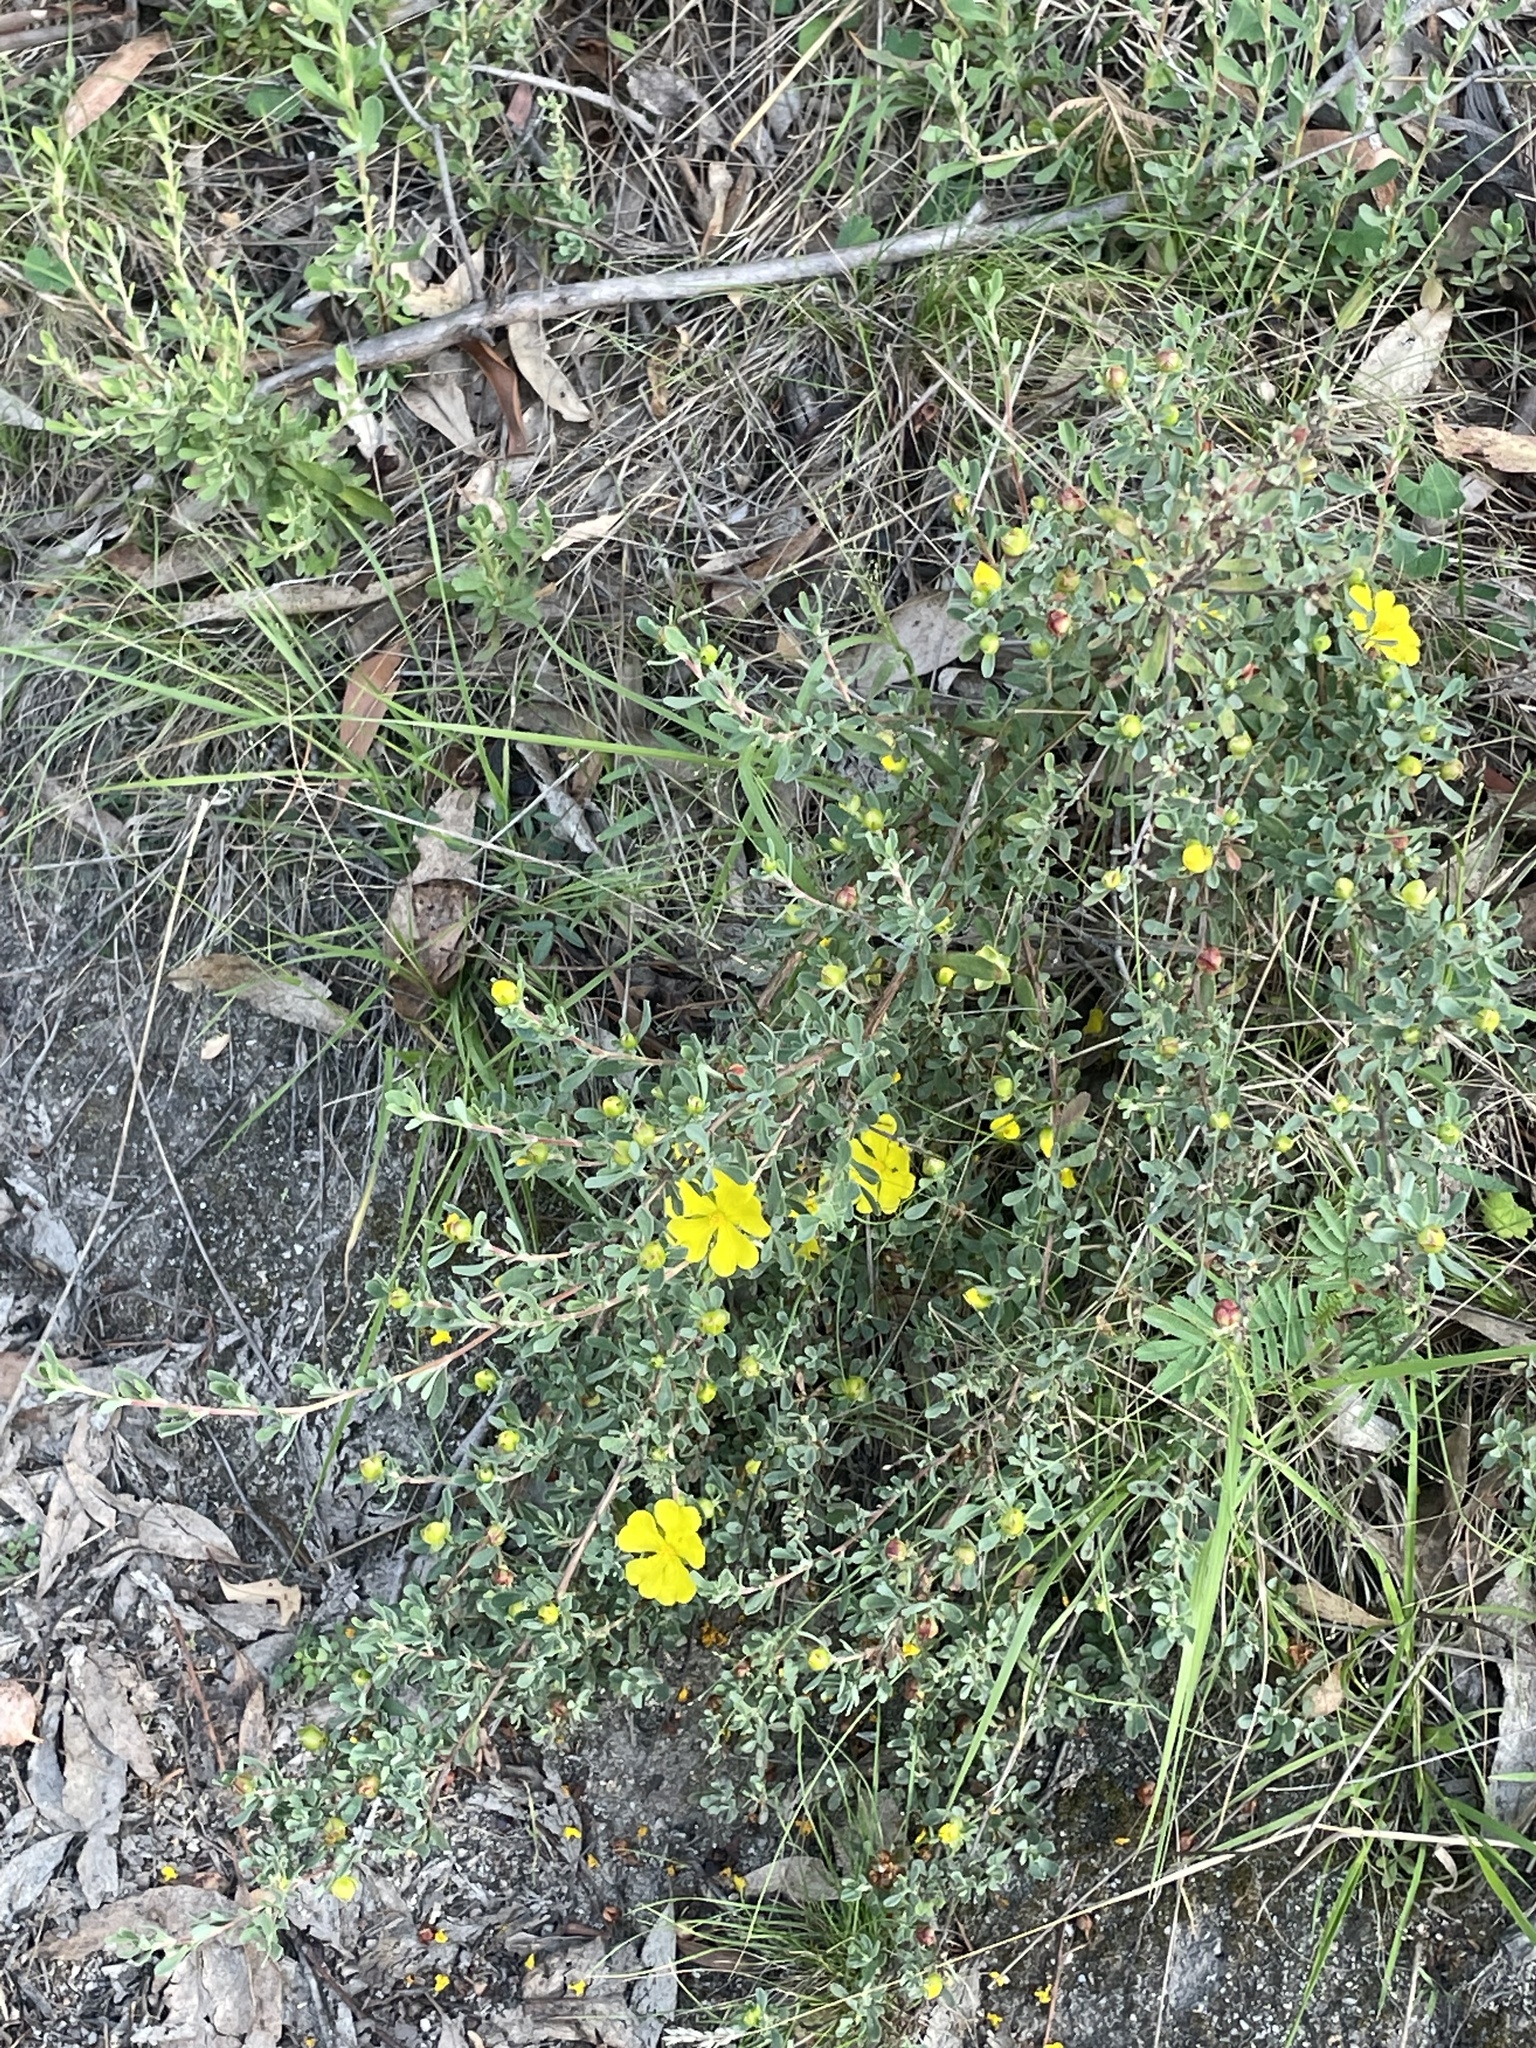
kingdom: Plantae
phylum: Tracheophyta
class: Magnoliopsida
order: Dilleniales
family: Dilleniaceae
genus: Hibbertia
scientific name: Hibbertia obtusifolia
